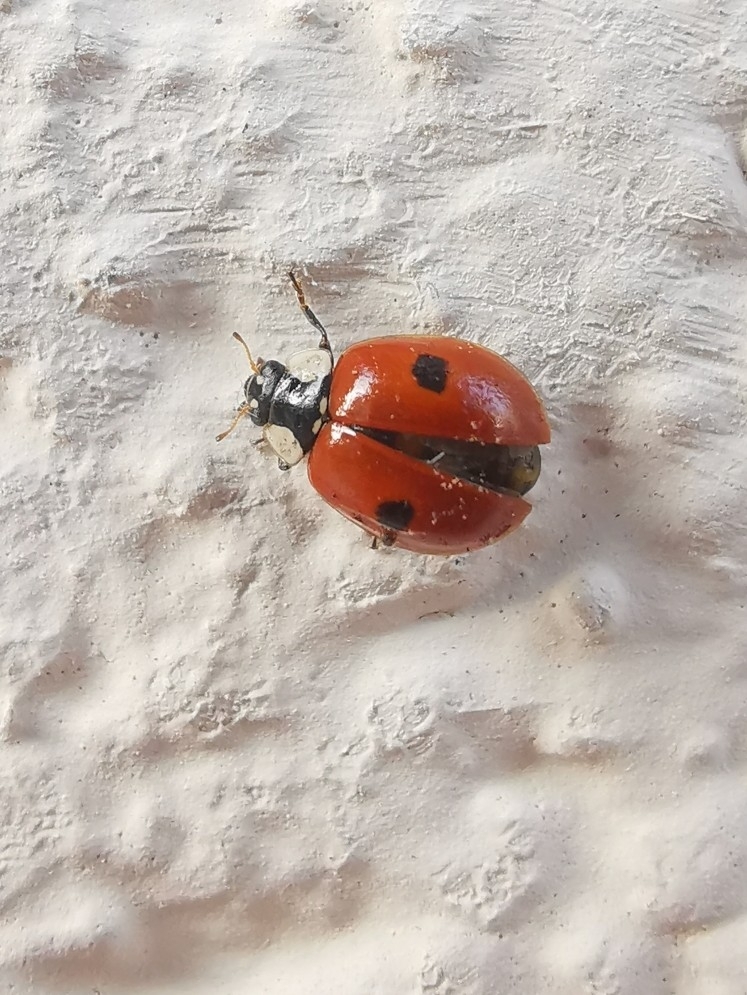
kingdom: Animalia
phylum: Arthropoda
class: Insecta
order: Coleoptera
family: Coccinellidae
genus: Adalia
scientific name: Adalia bipunctata
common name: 2-spot ladybird
